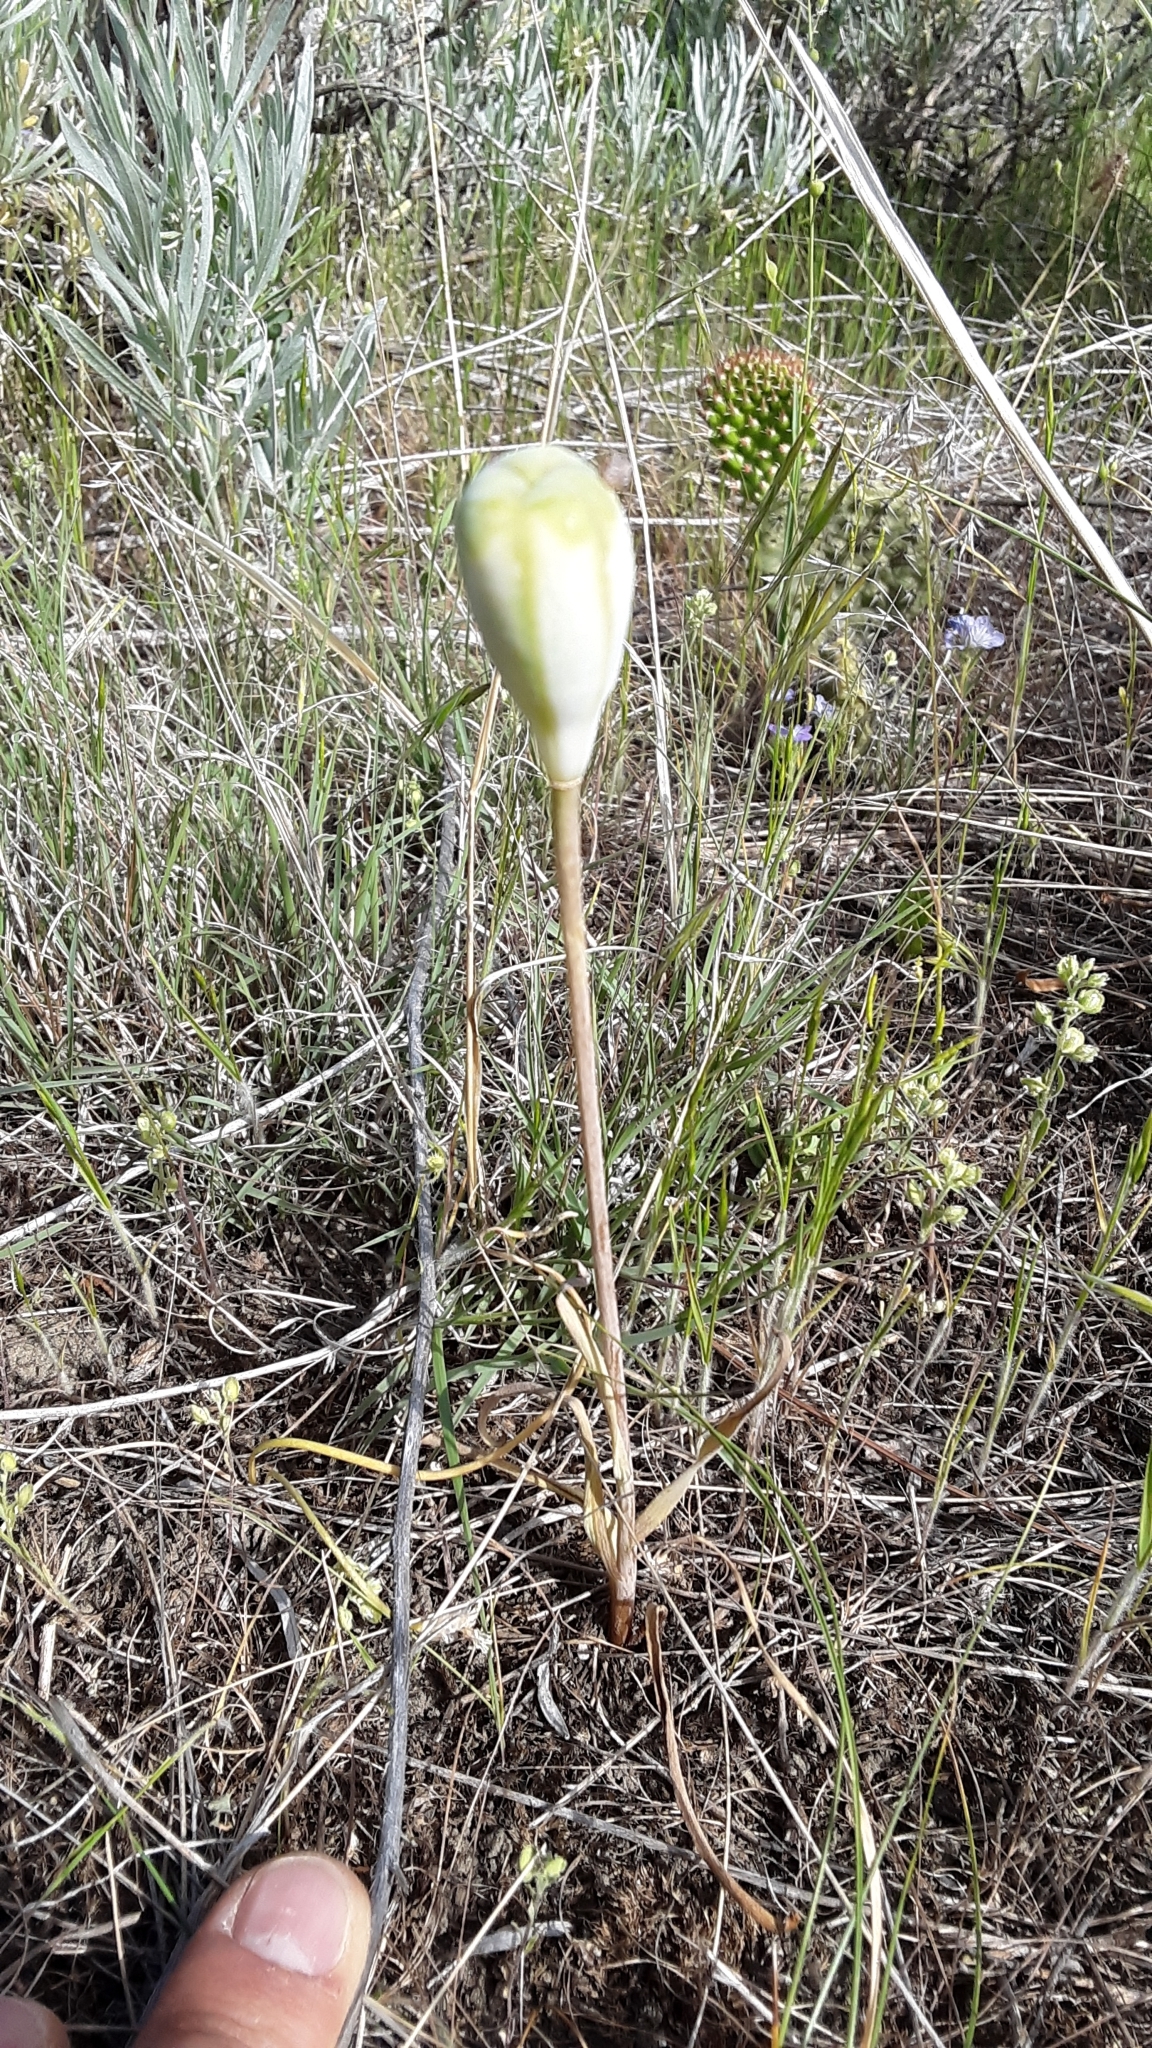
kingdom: Plantae
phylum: Tracheophyta
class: Liliopsida
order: Liliales
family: Liliaceae
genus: Fritillaria
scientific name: Fritillaria pudica
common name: Yellow fritillary
